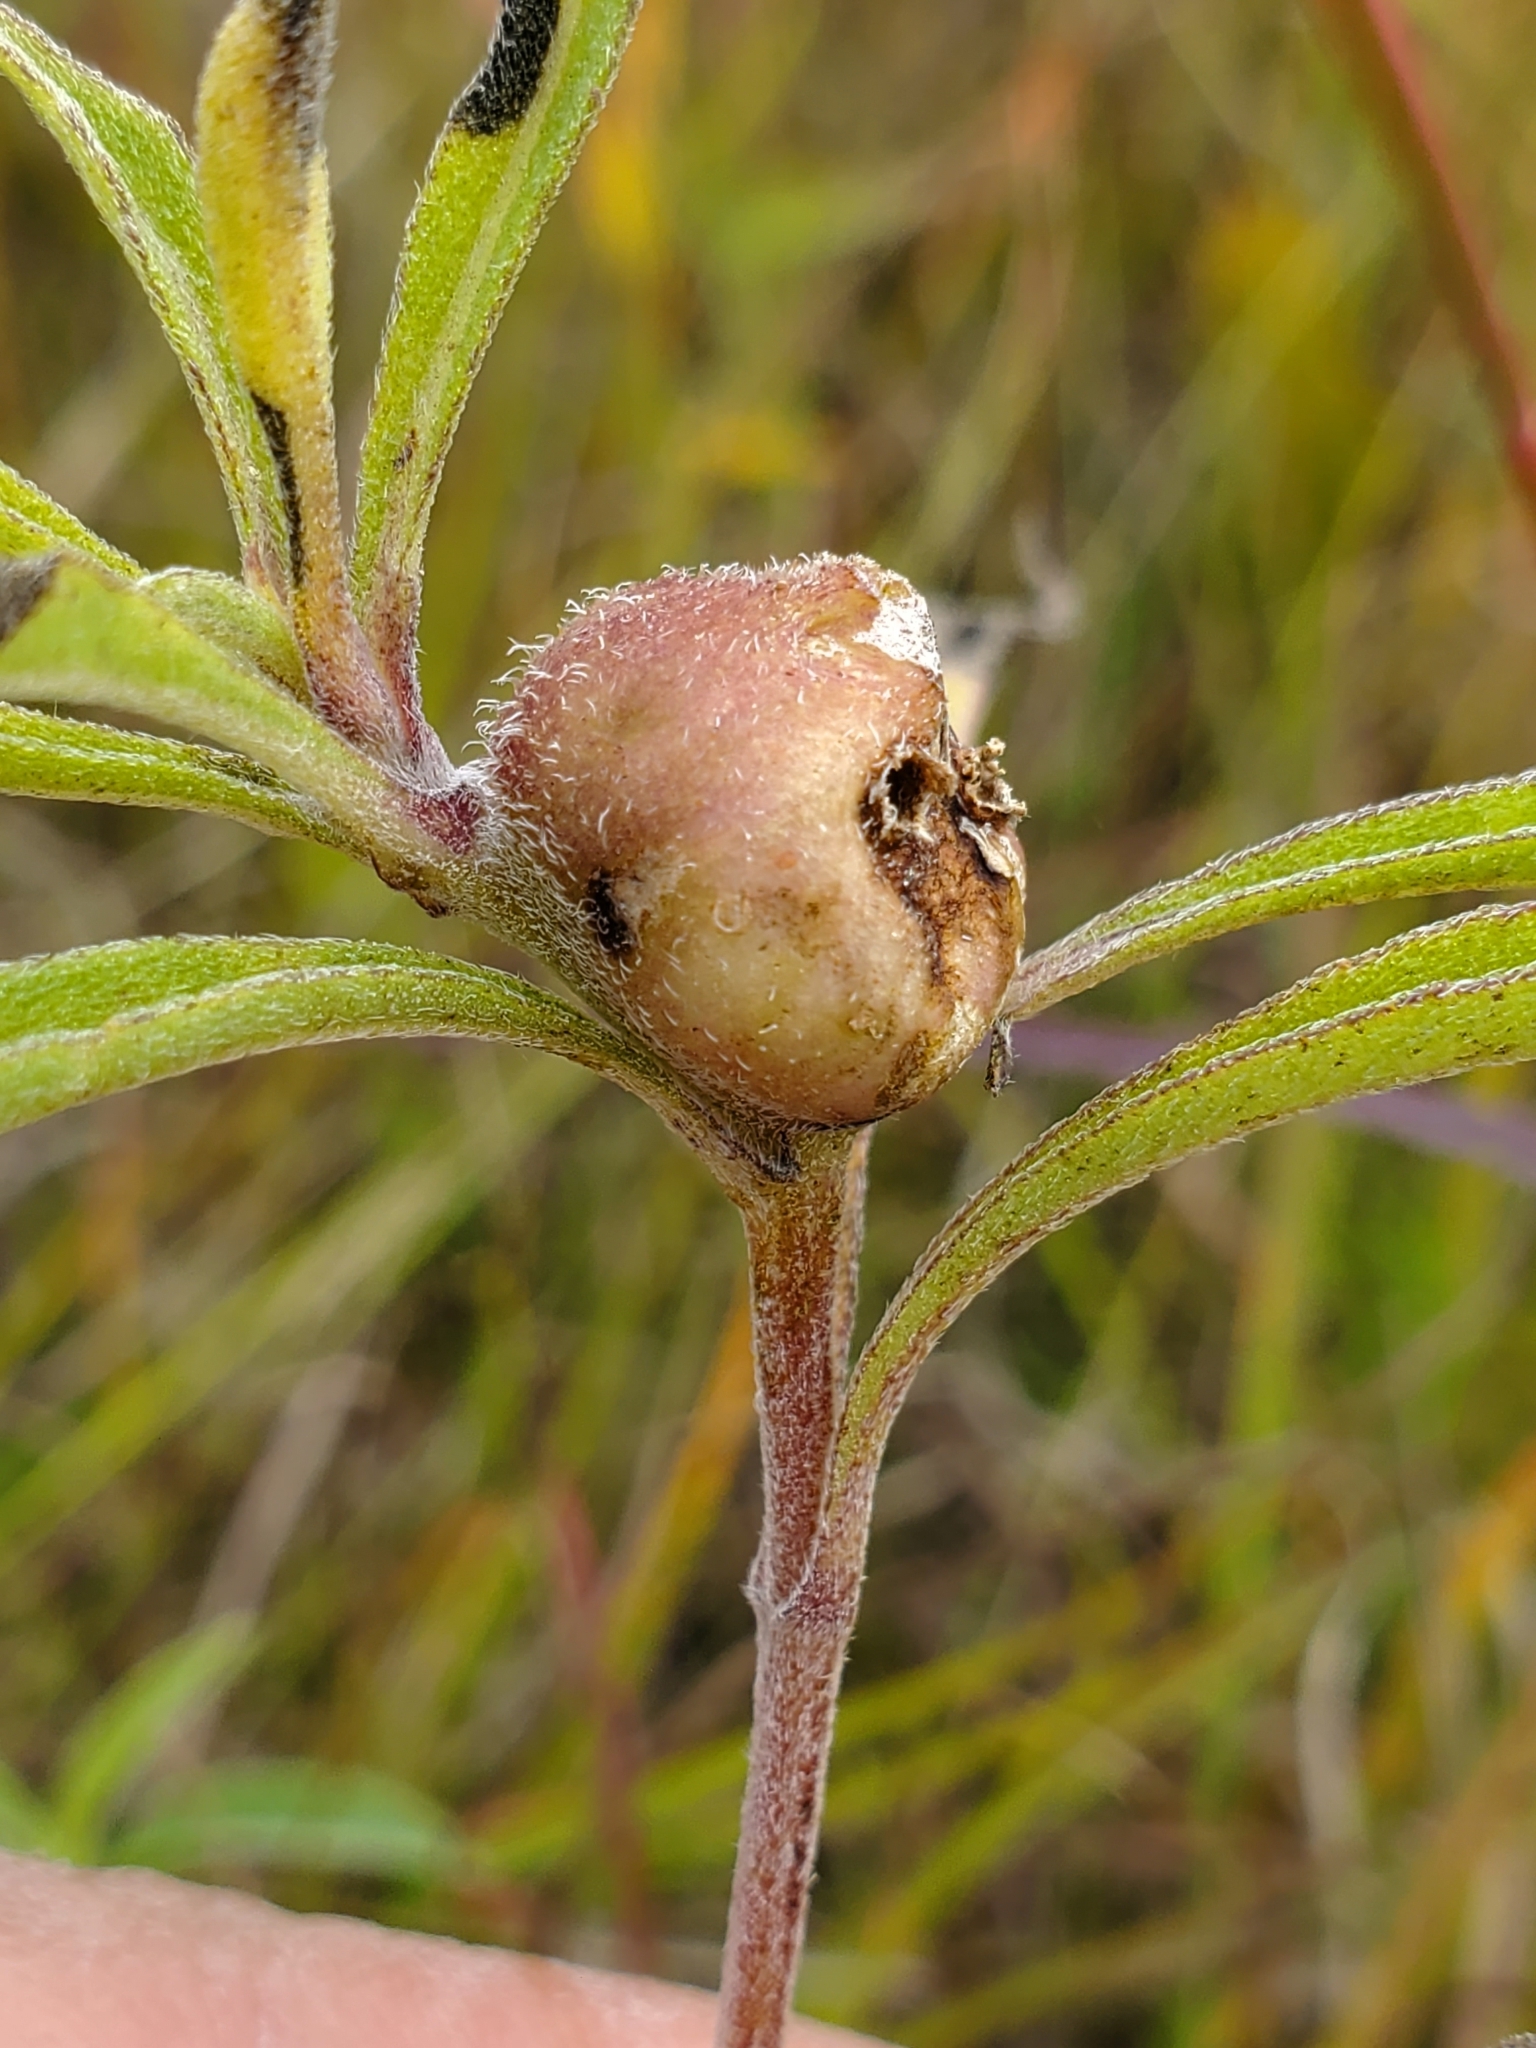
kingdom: Animalia
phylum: Arthropoda
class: Insecta
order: Diptera
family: Cecidomyiidae
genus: Asphondylia
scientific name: Asphondylia helianthiglobulus
